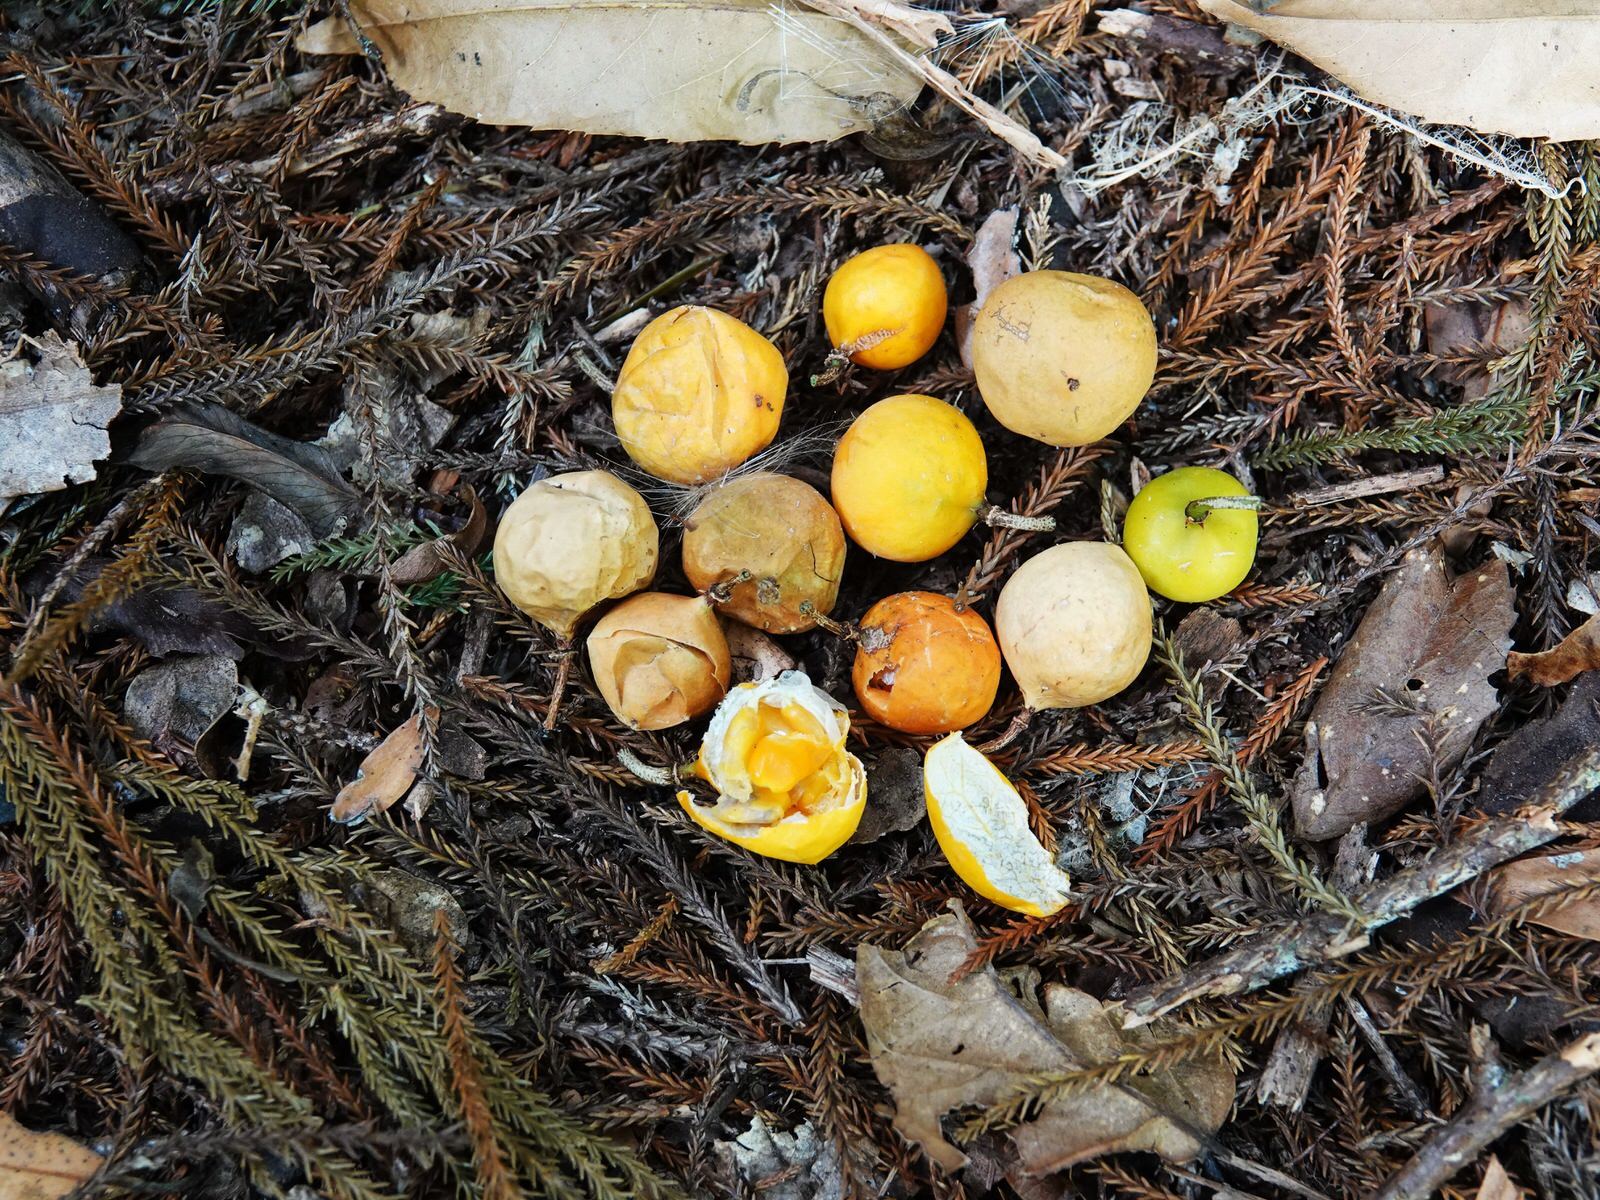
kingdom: Plantae
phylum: Tracheophyta
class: Magnoliopsida
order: Malpighiales
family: Passifloraceae
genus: Passiflora
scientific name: Passiflora tetrandra
